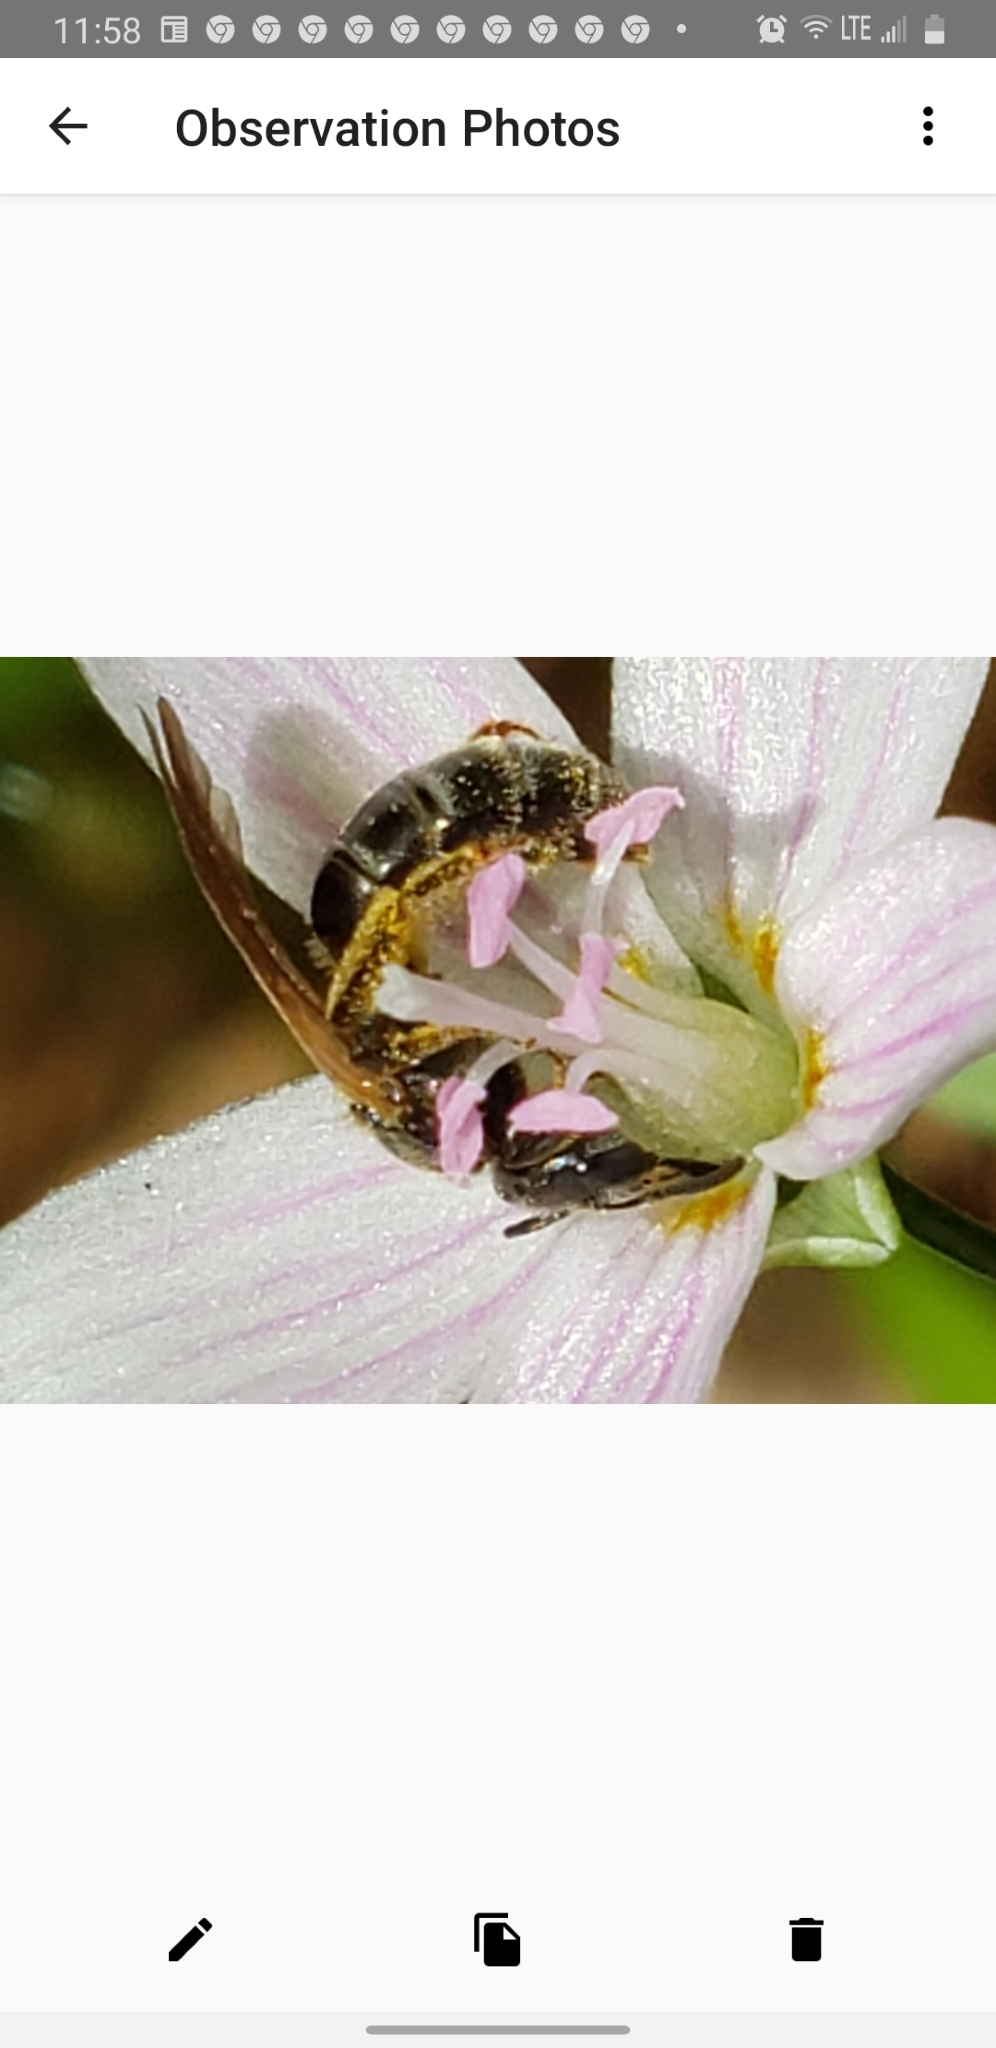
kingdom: Animalia
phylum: Arthropoda
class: Insecta
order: Hymenoptera
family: Halictidae
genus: Lasioglossum
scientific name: Lasioglossum quebecense
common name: Quebec sweat bee
